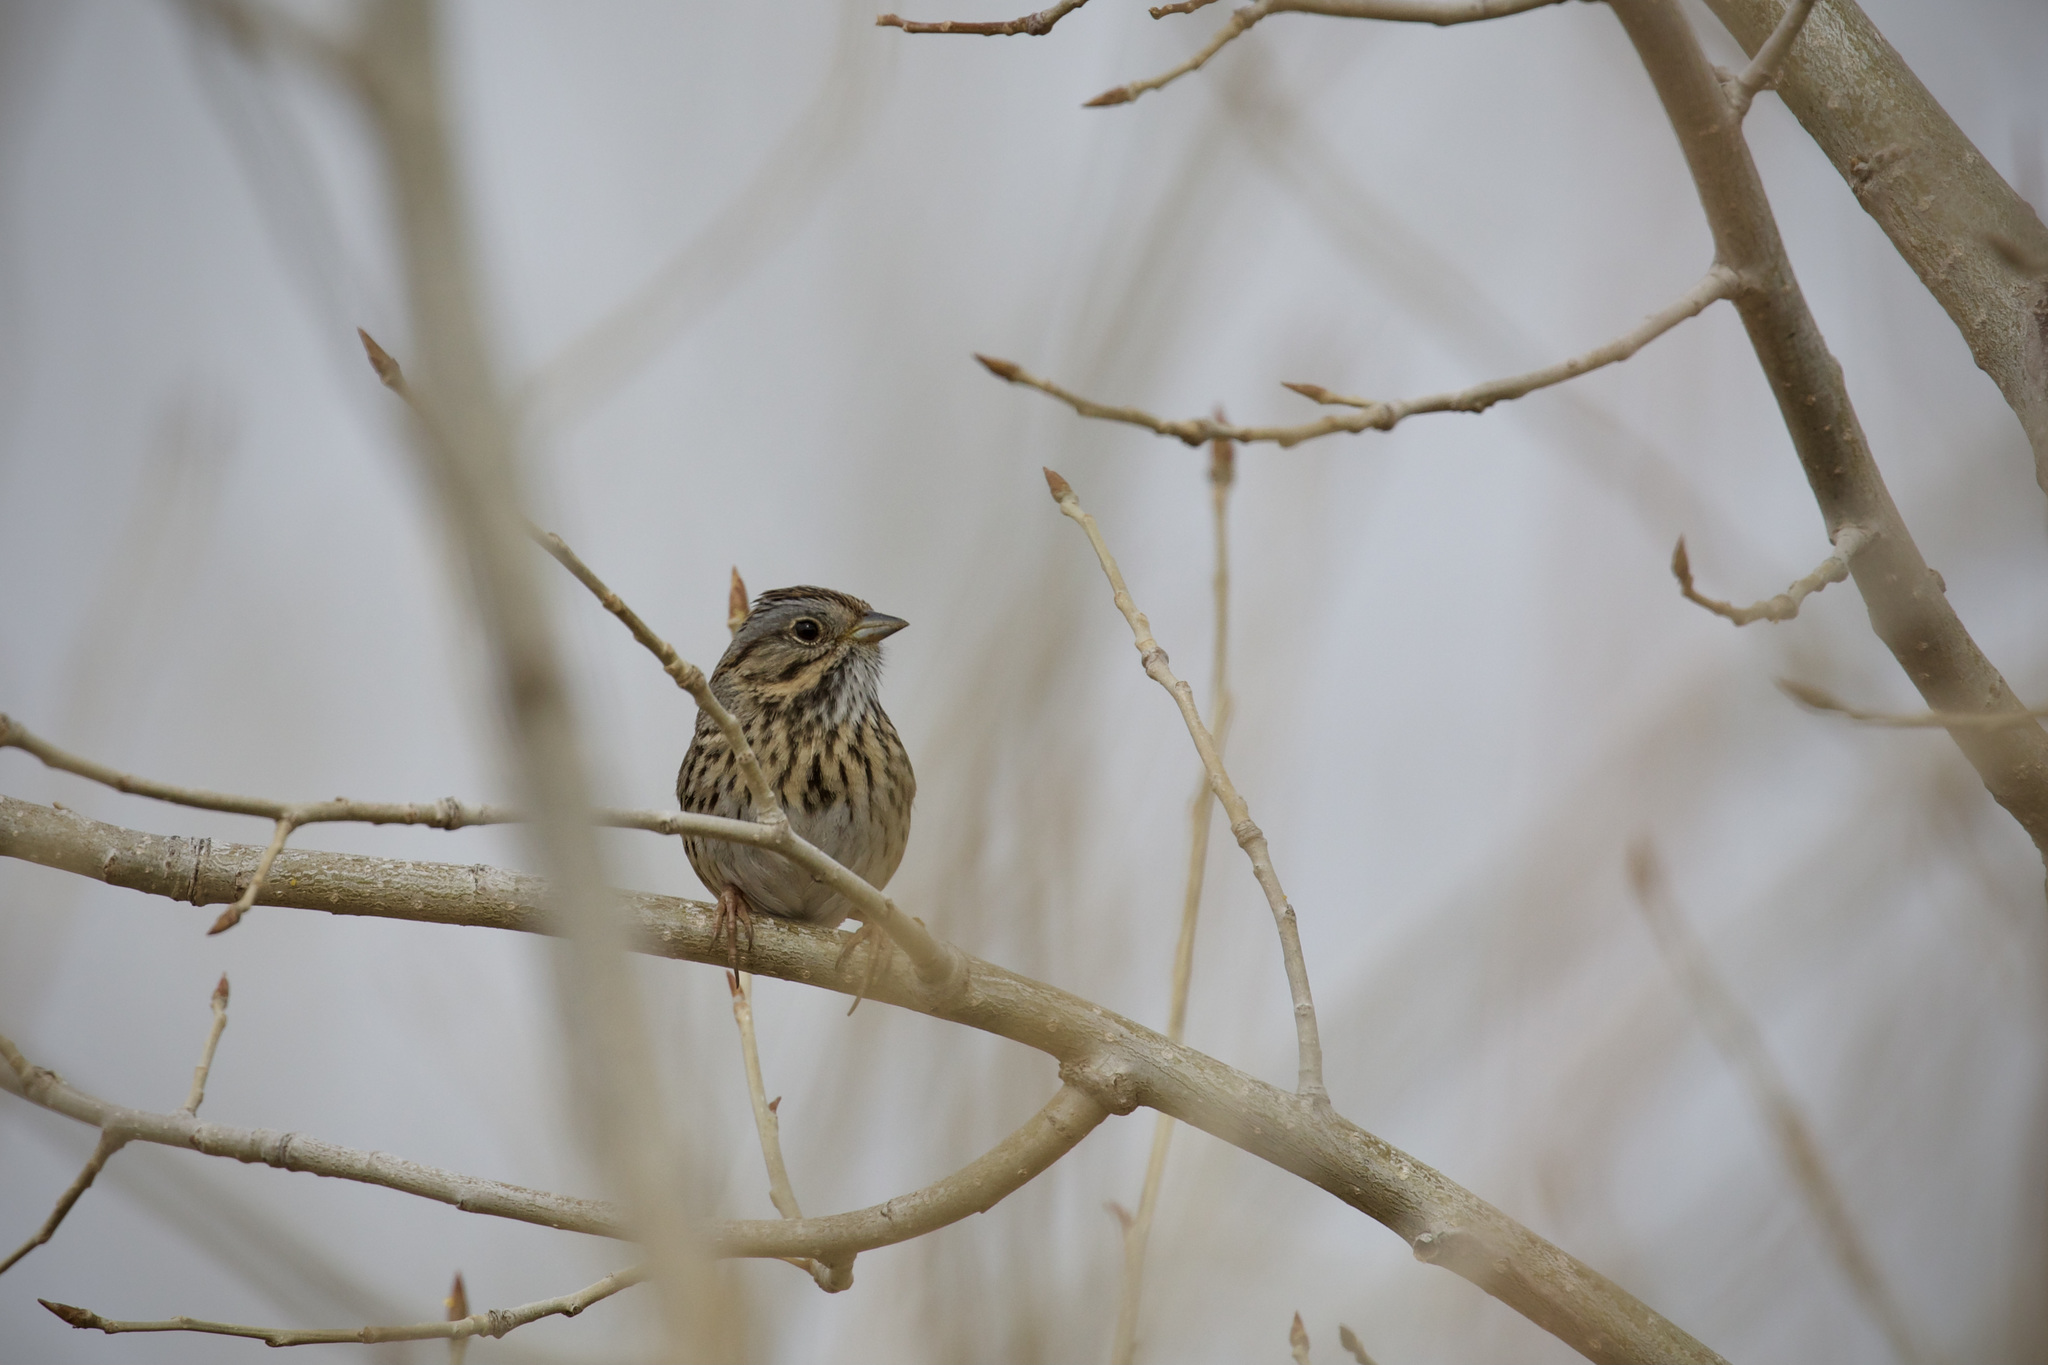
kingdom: Animalia
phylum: Chordata
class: Aves
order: Passeriformes
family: Passerellidae
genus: Melospiza
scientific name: Melospiza lincolnii
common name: Lincoln's sparrow
